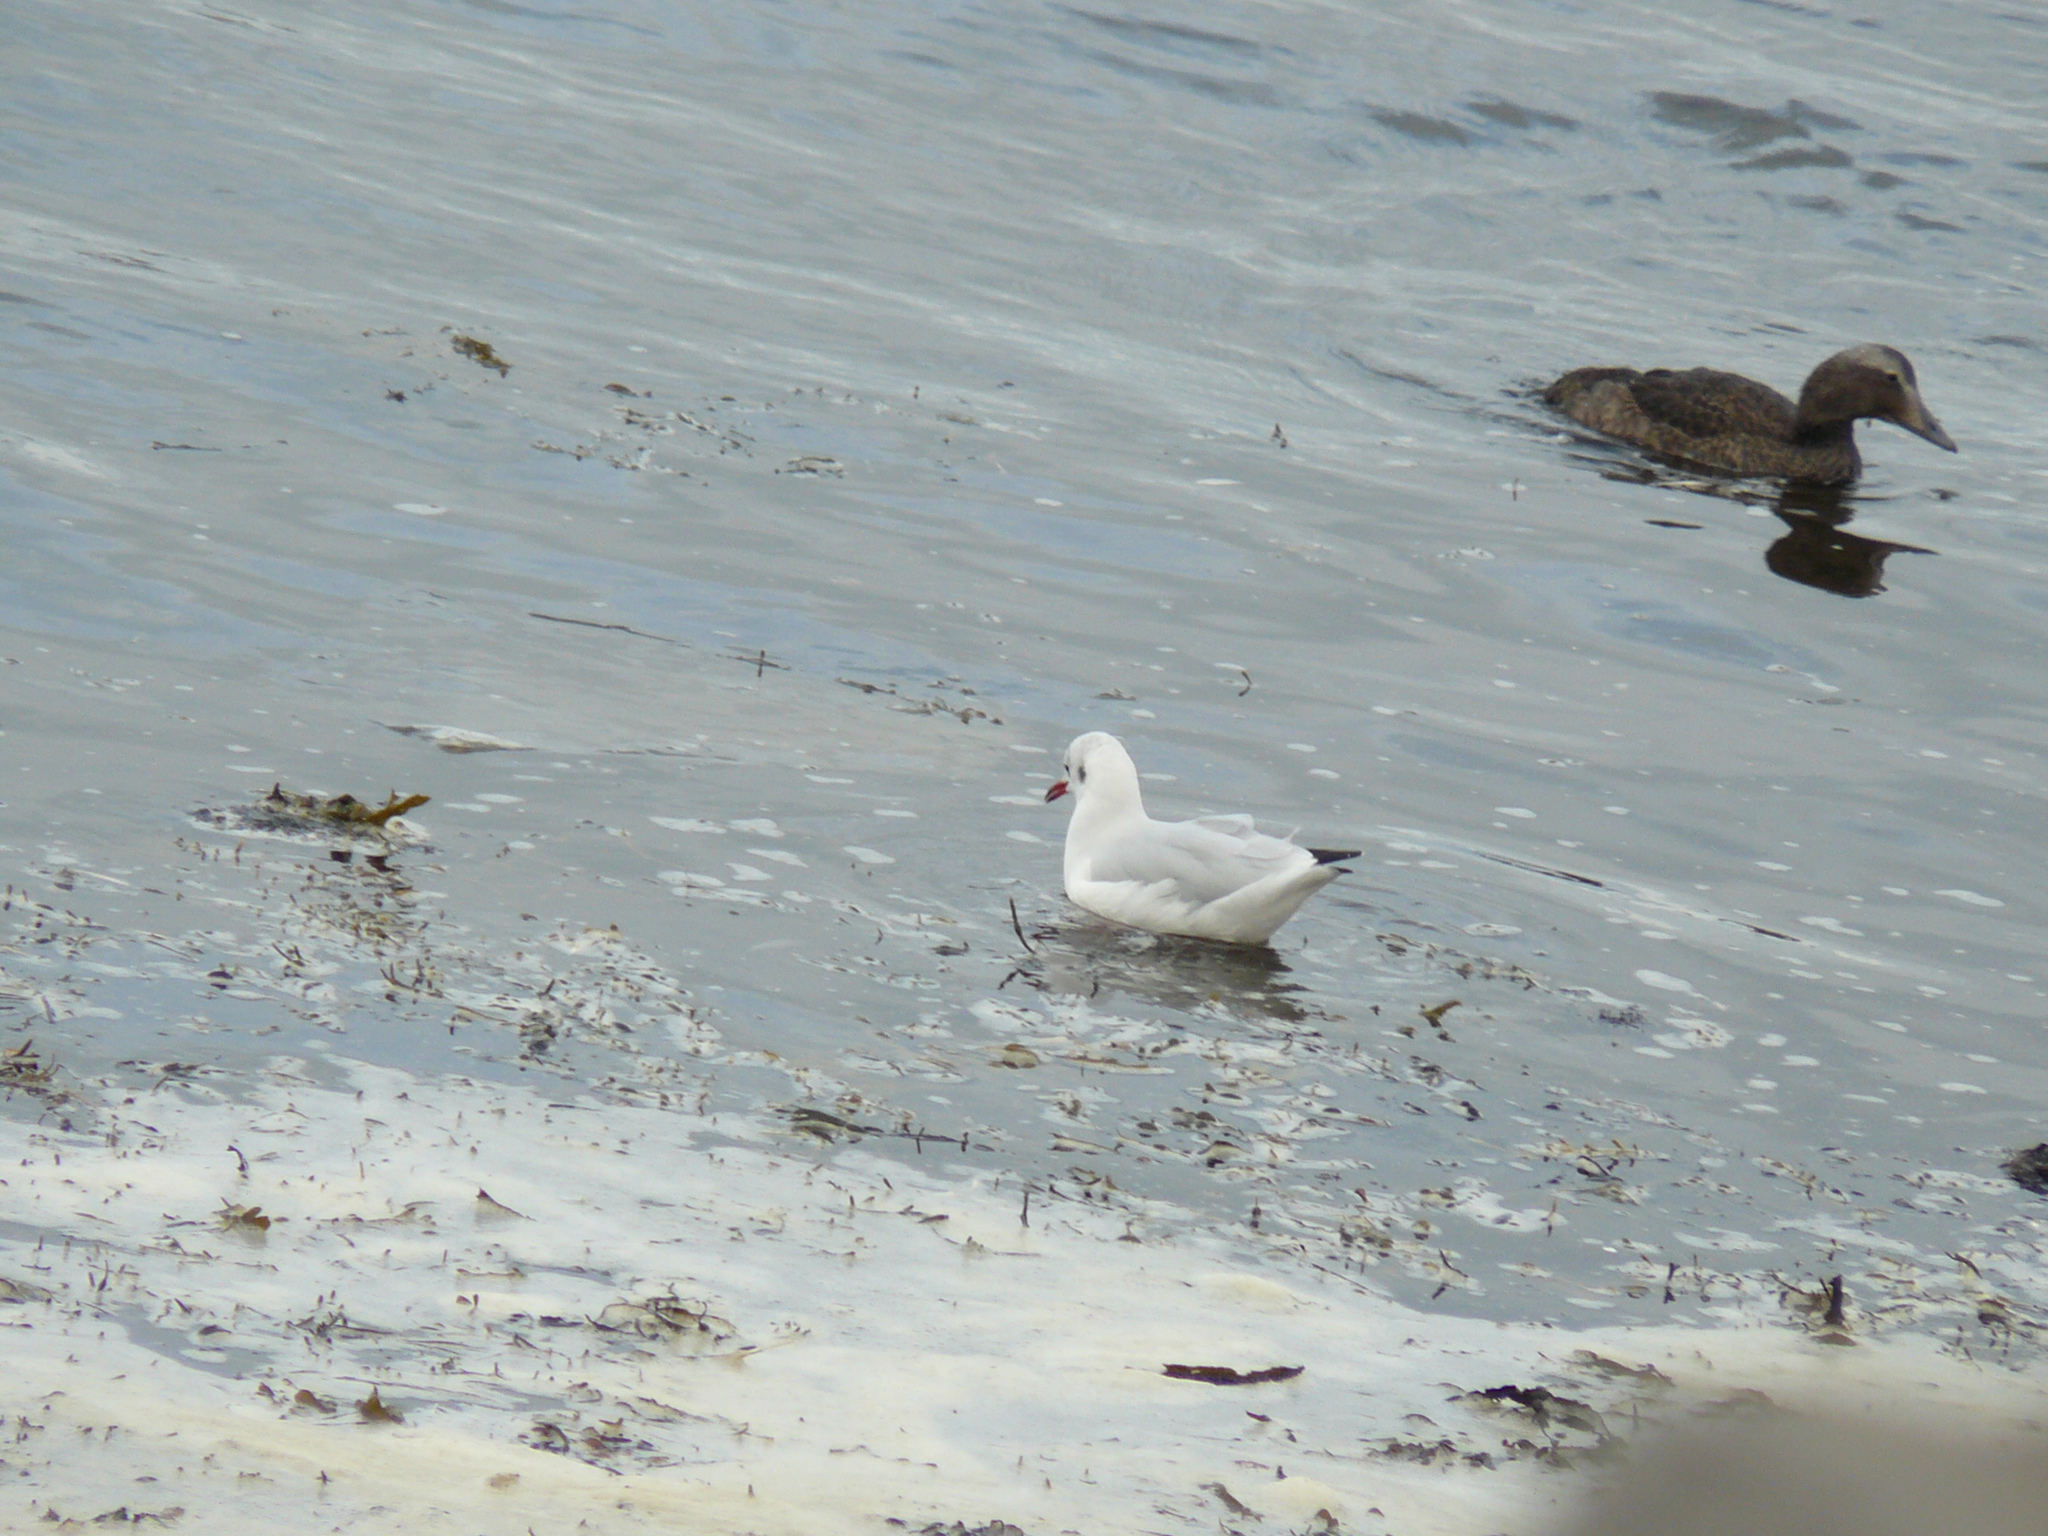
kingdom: Animalia
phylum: Chordata
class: Aves
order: Charadriiformes
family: Laridae
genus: Chroicocephalus
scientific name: Chroicocephalus ridibundus
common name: Black-headed gull
